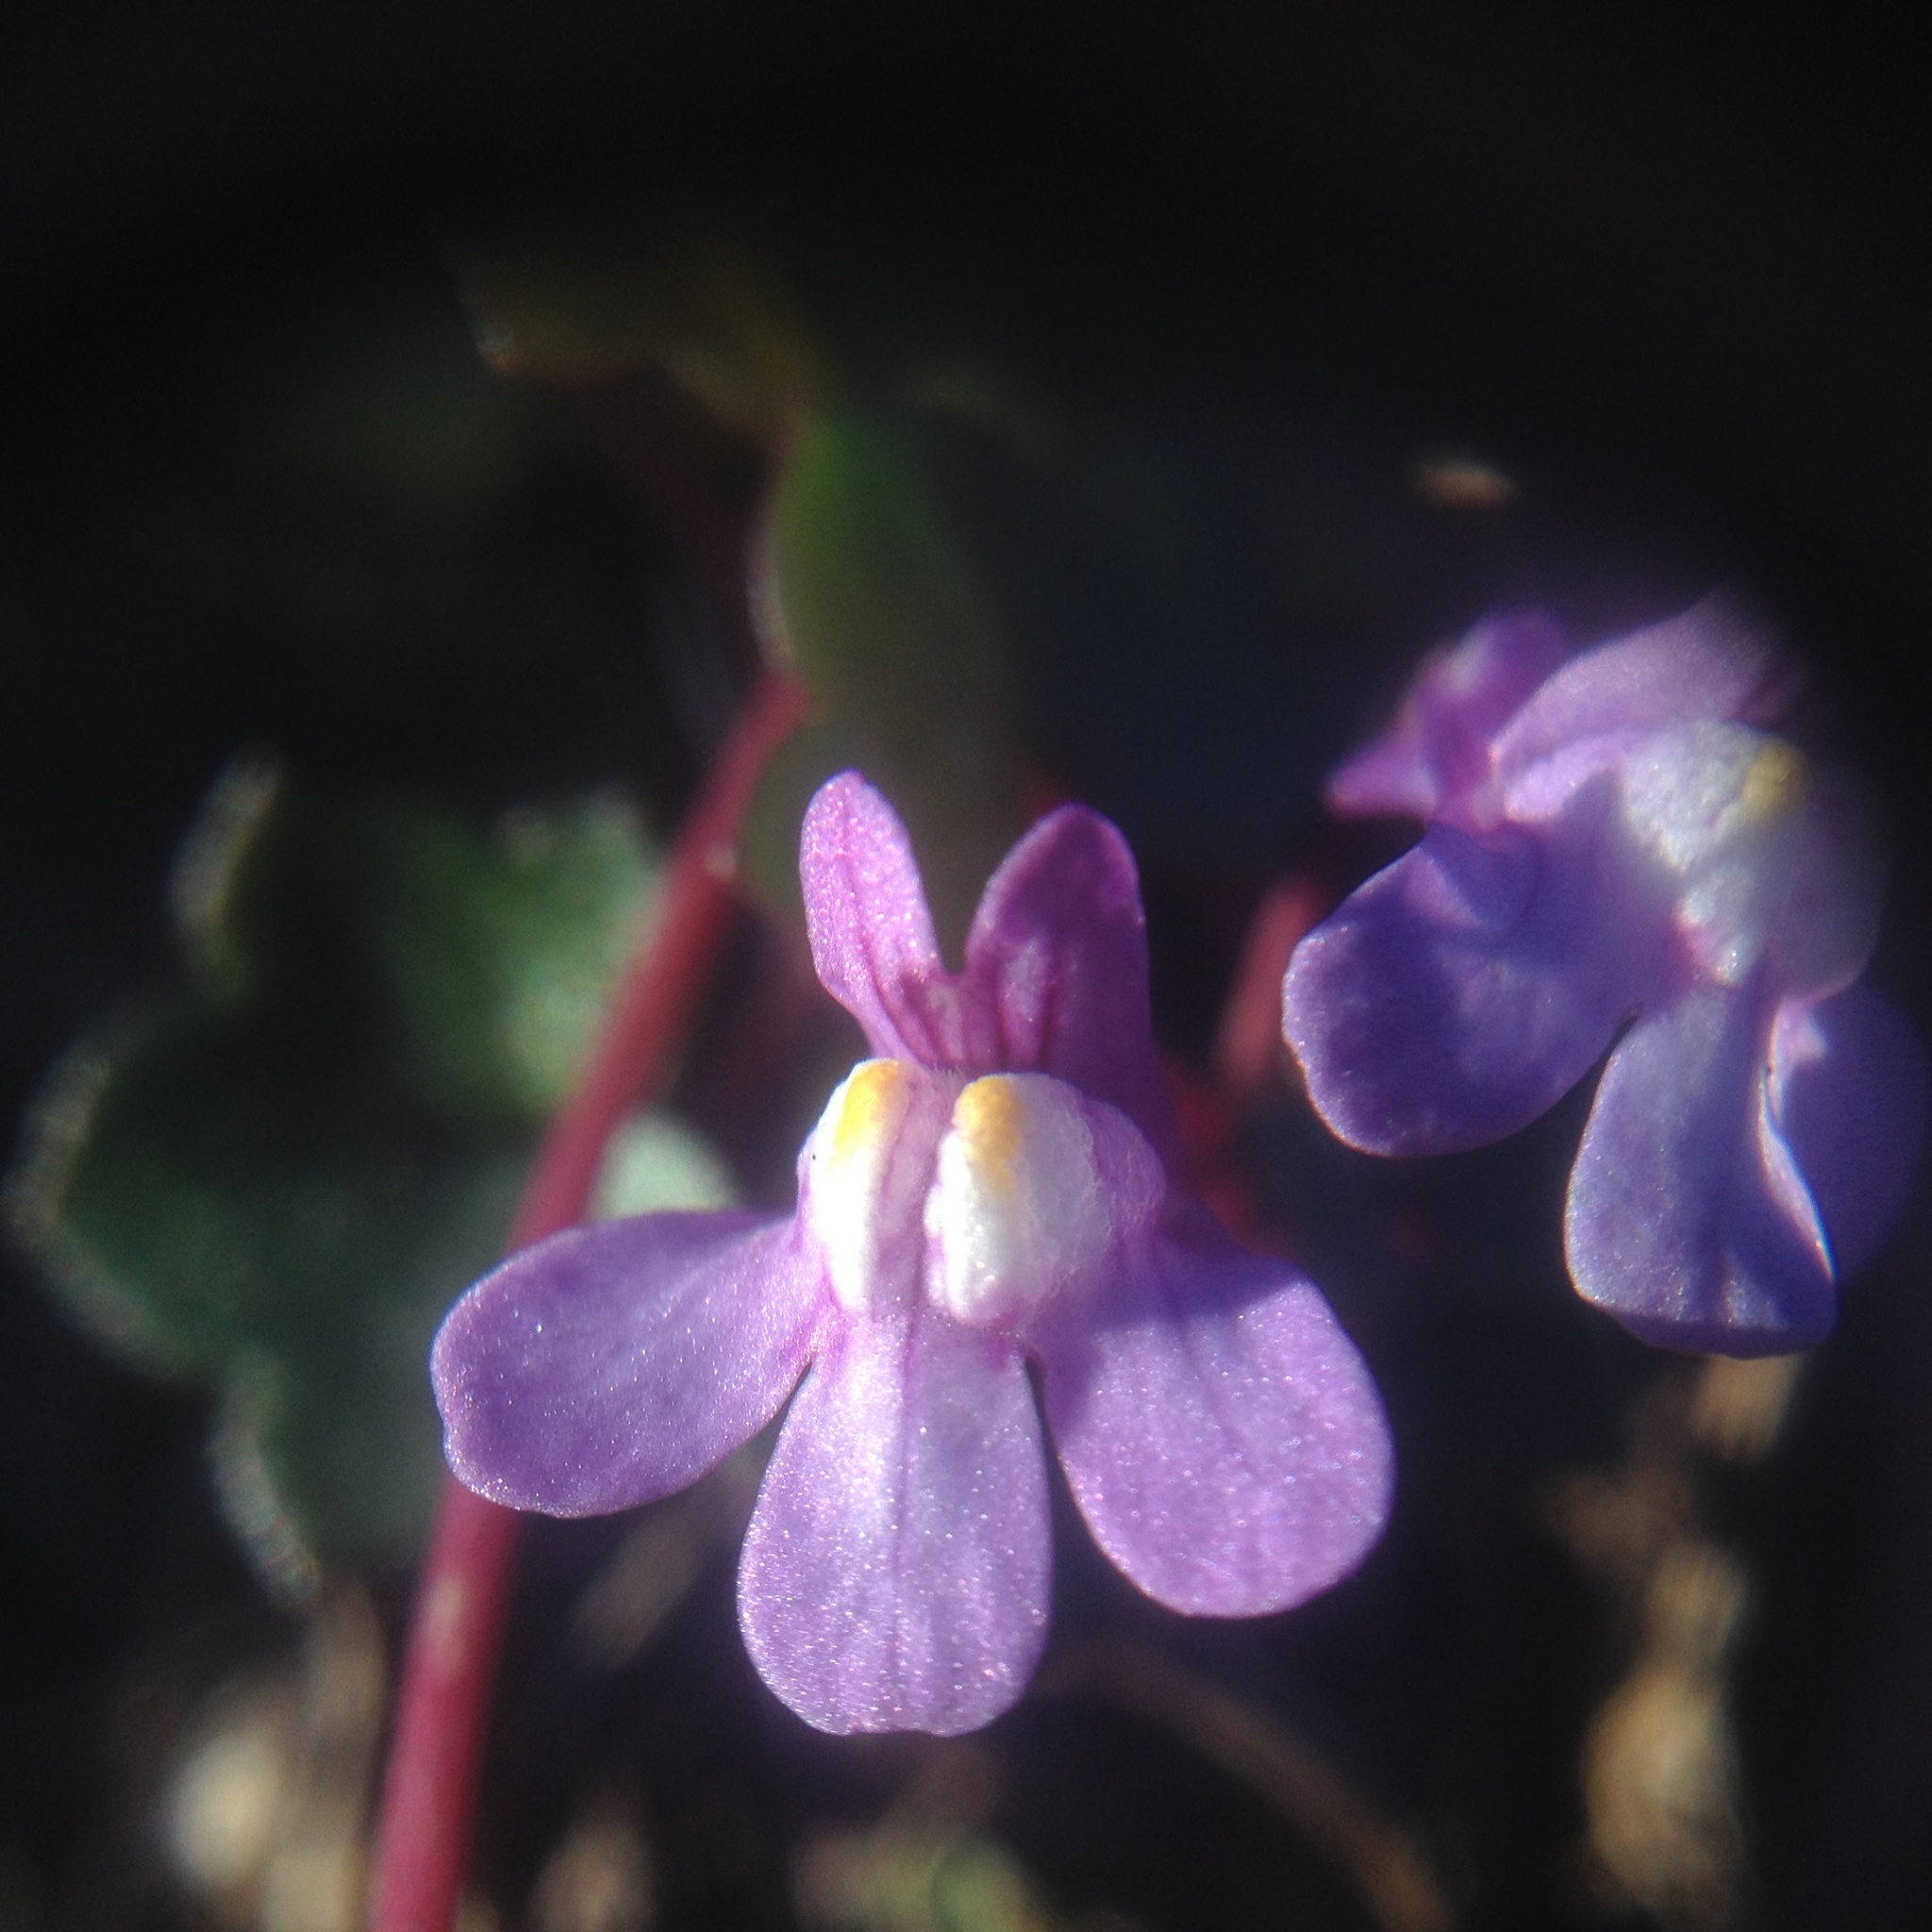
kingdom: Plantae
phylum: Tracheophyta
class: Magnoliopsida
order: Lamiales
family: Plantaginaceae
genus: Cymbalaria
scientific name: Cymbalaria muralis
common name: Ivy-leaved toadflax
